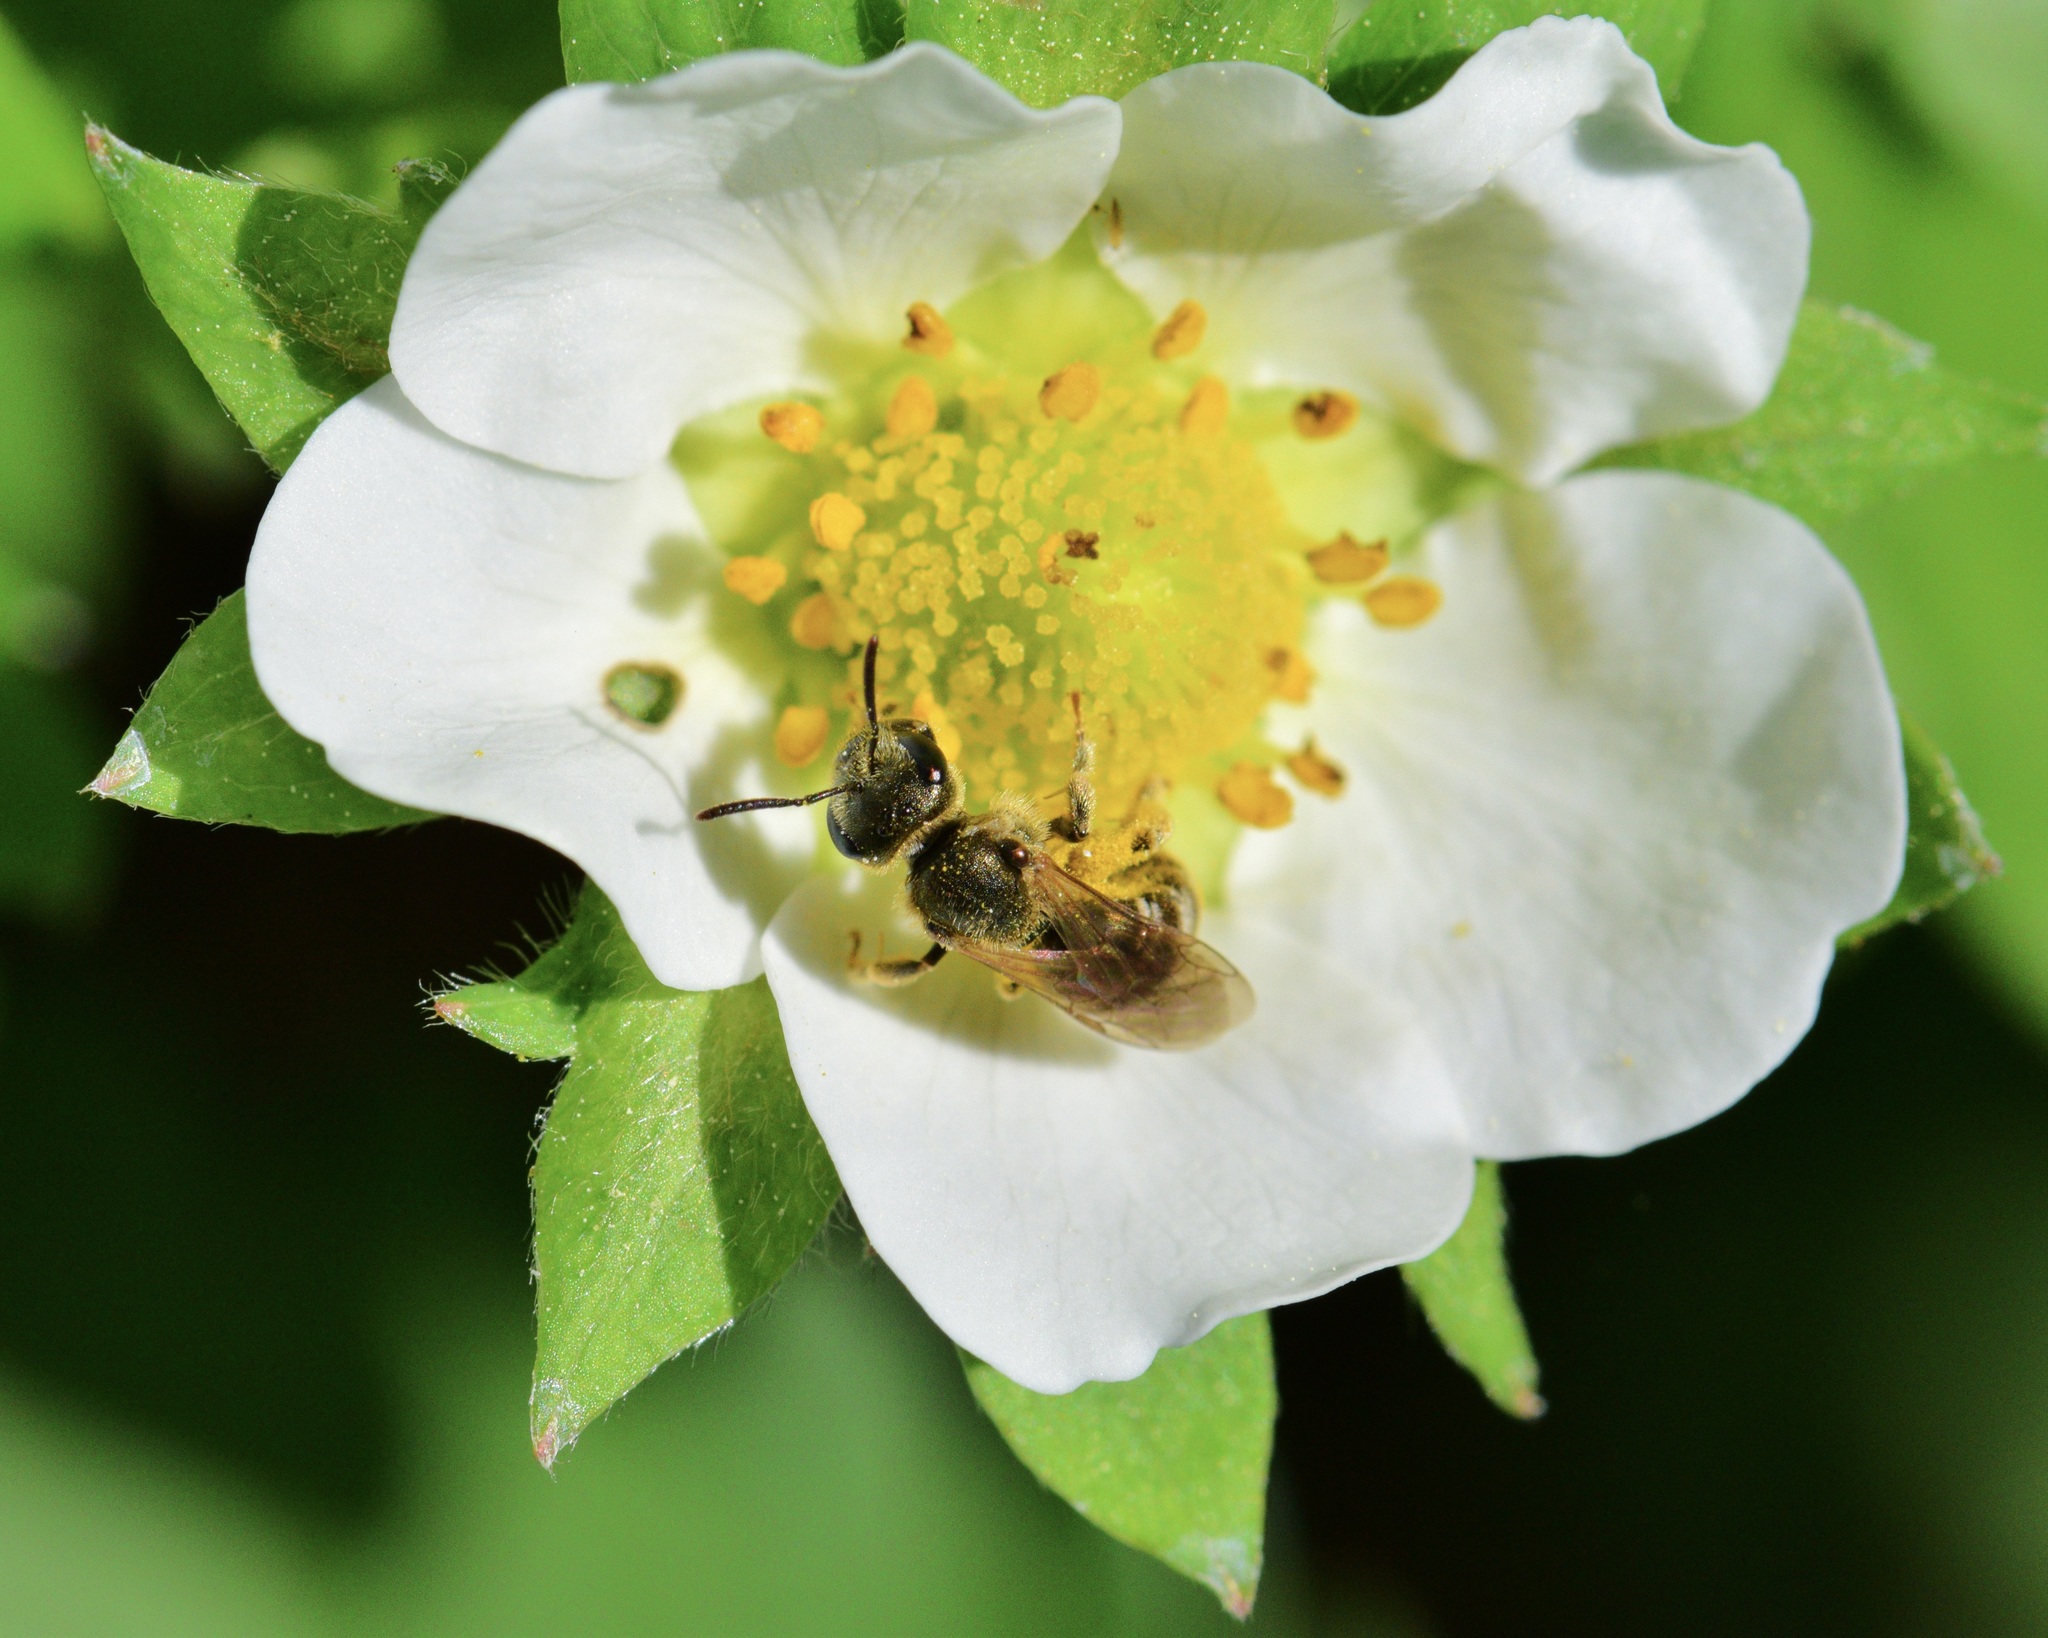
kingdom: Animalia
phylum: Arthropoda
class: Insecta
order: Hymenoptera
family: Halictidae
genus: Halictus
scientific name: Halictus confusus
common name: Southern bronze furrow bee
